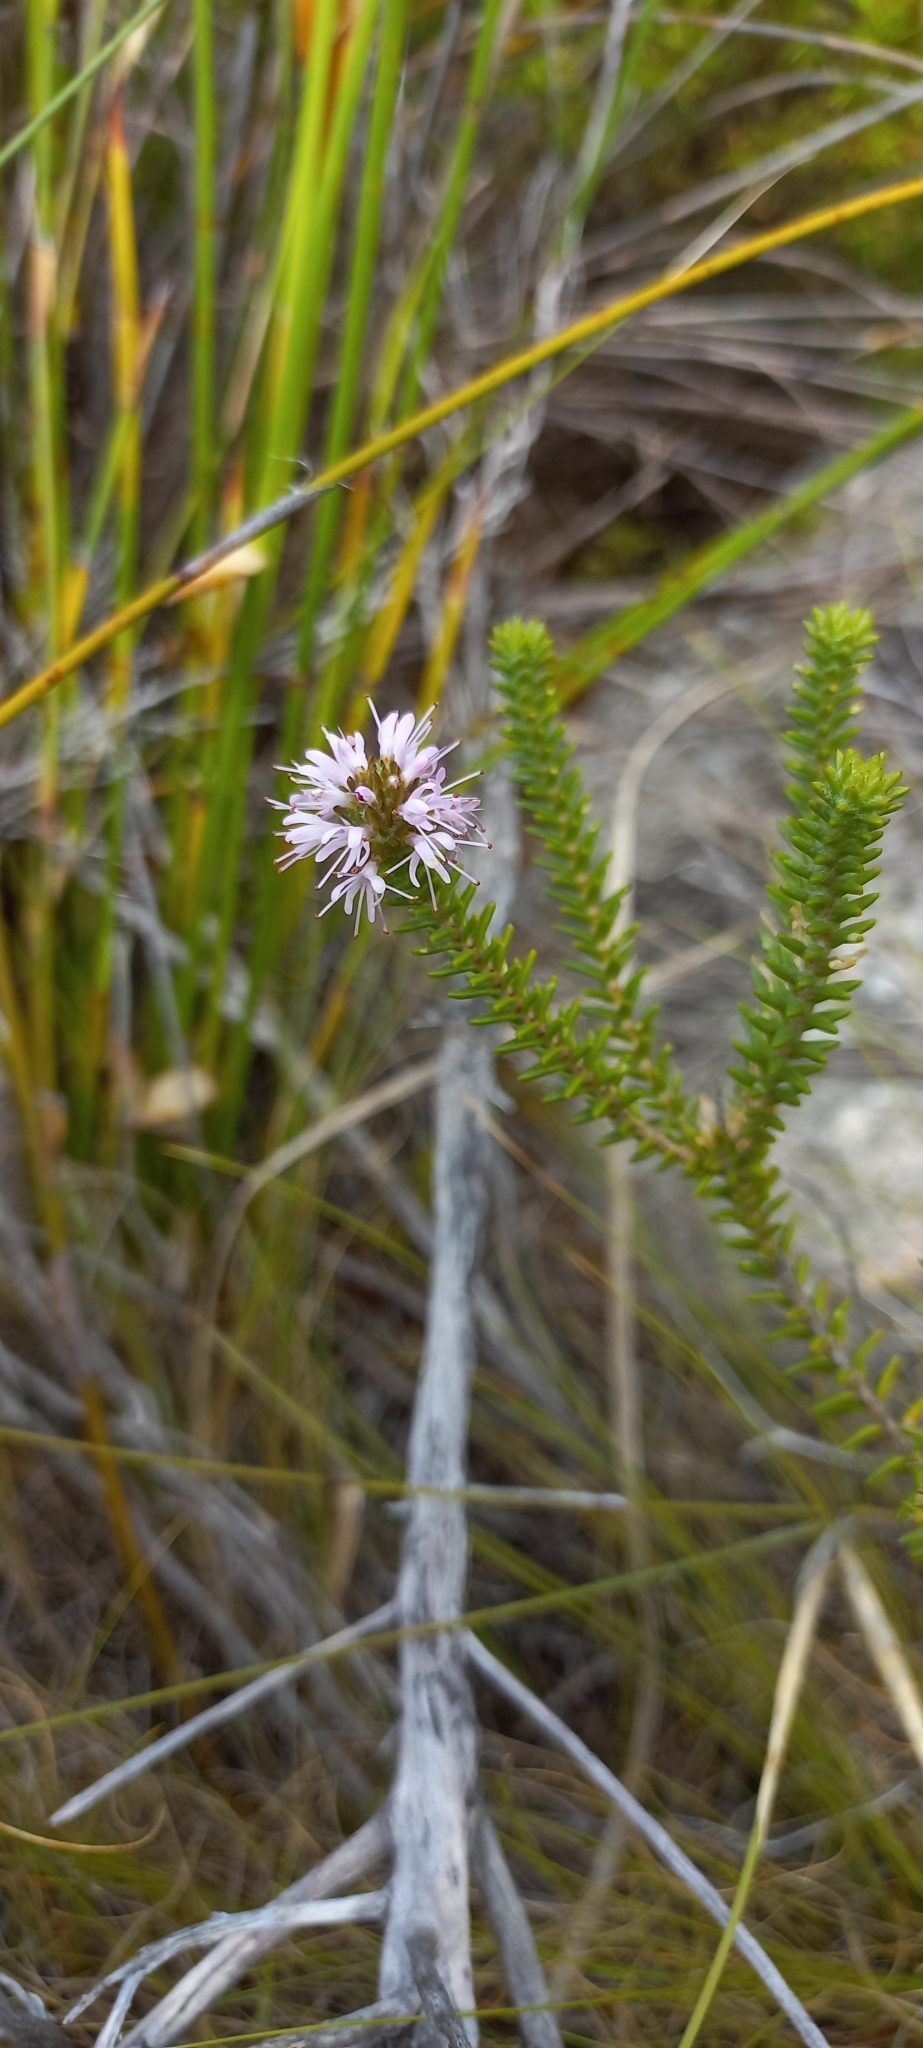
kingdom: Plantae
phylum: Tracheophyta
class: Magnoliopsida
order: Lamiales
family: Stilbaceae
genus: Stilbe
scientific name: Stilbe ericoides
